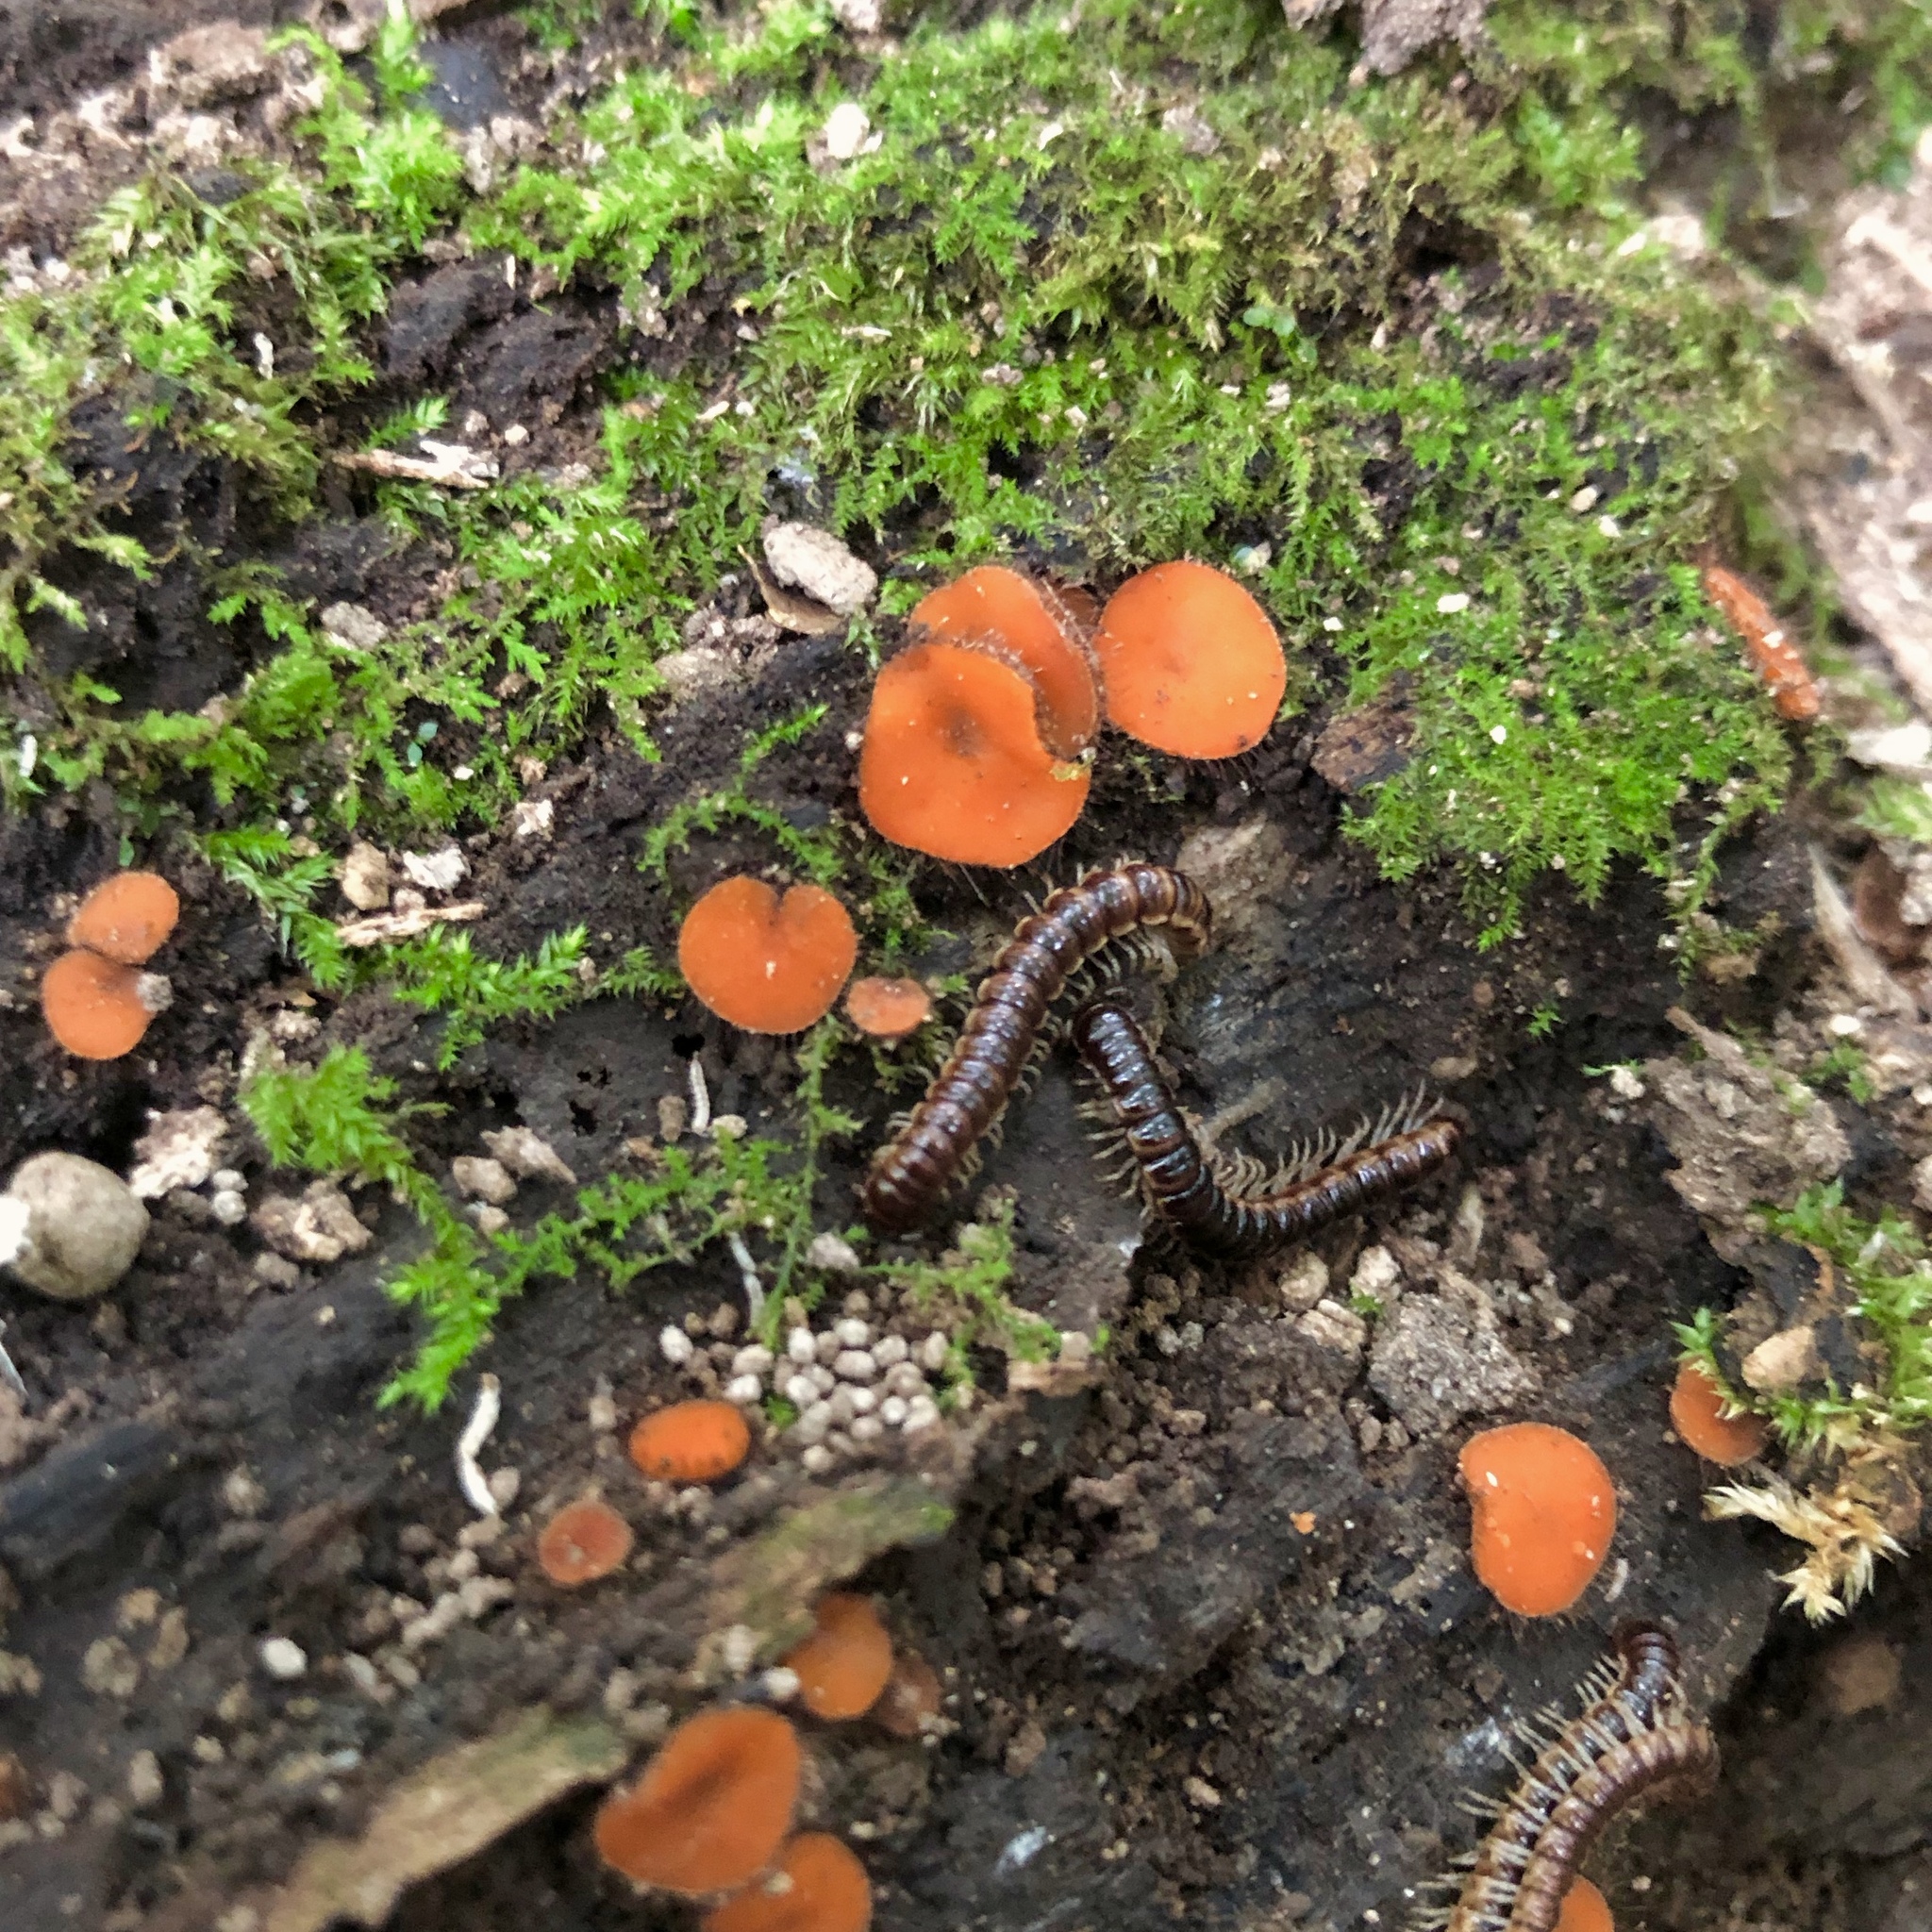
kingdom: Fungi
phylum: Ascomycota
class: Pezizomycetes
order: Pezizales
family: Pyronemataceae
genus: Scutellinia
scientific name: Scutellinia
